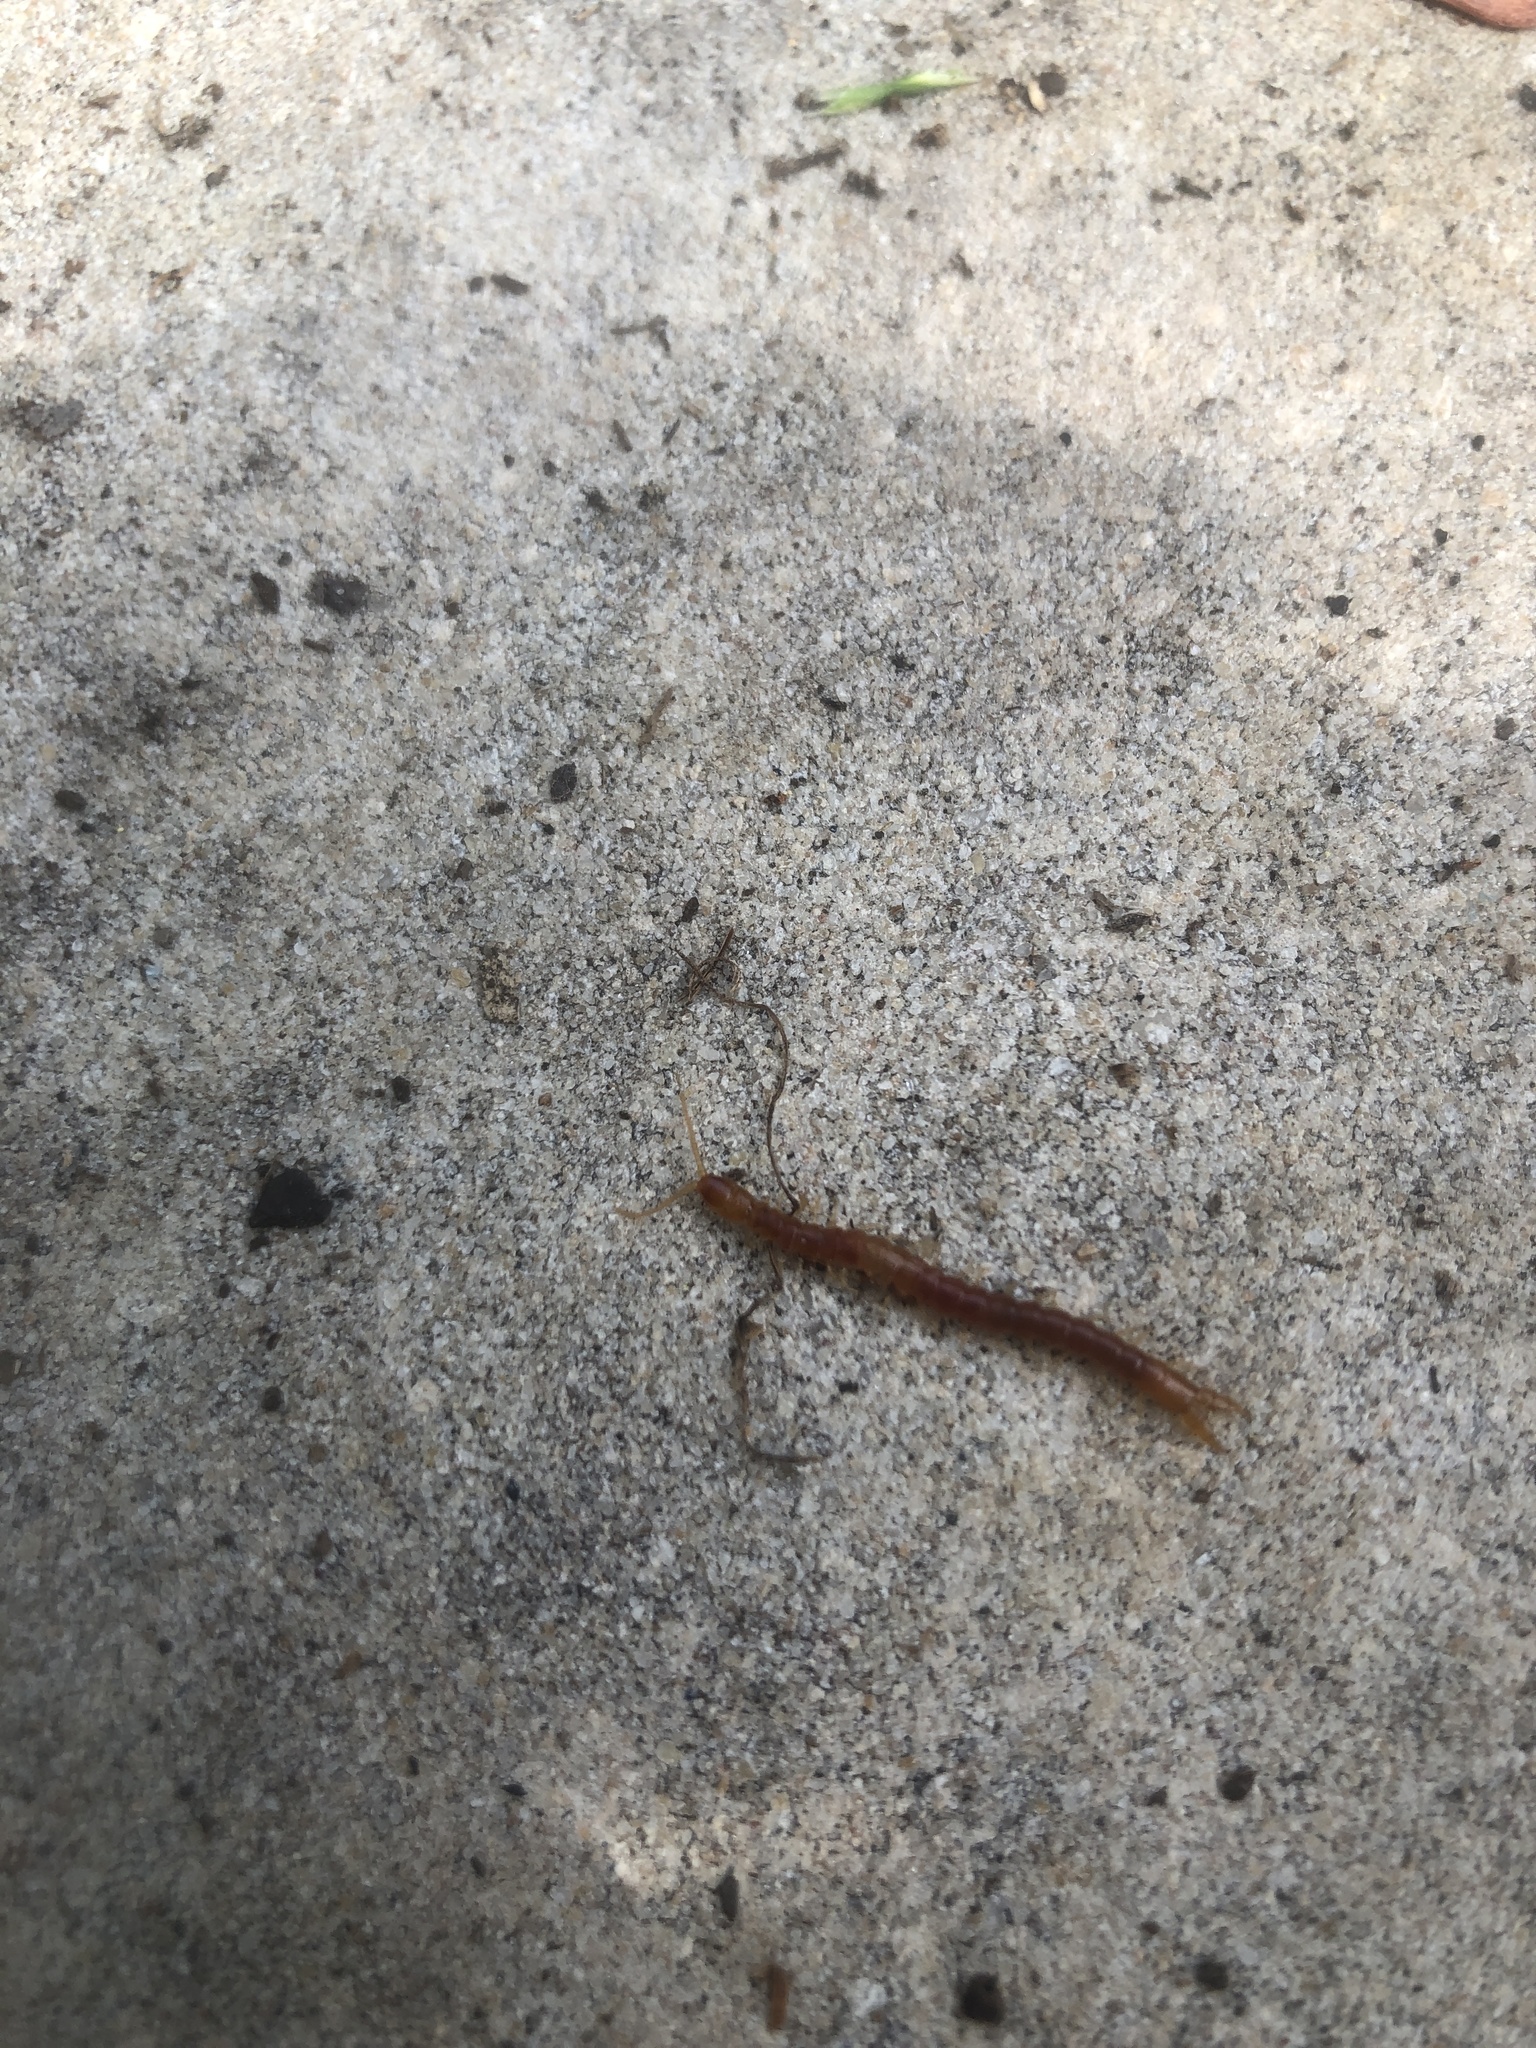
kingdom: Animalia
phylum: Arthropoda
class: Chilopoda
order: Scolopendromorpha
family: Cryptopidae
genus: Theatops
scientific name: Theatops posticus
